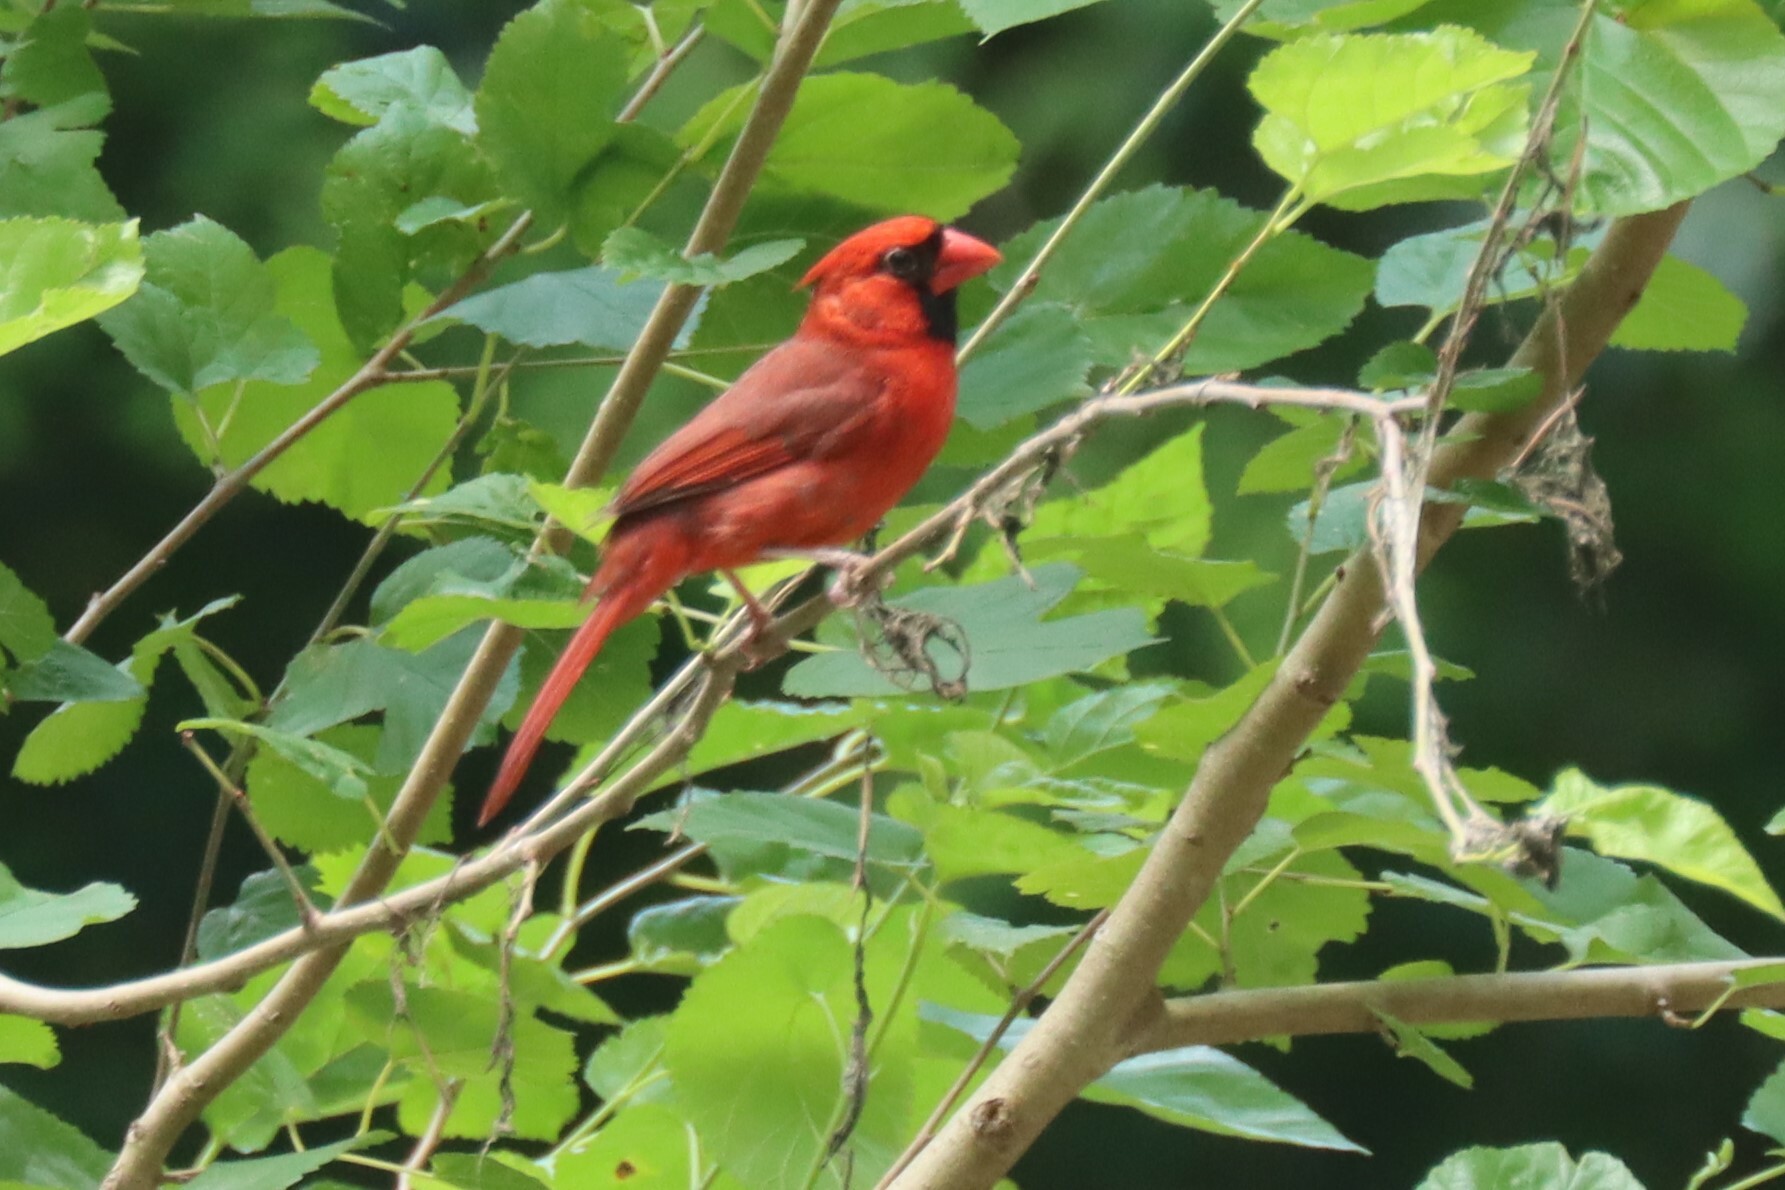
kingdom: Animalia
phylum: Chordata
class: Aves
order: Passeriformes
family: Cardinalidae
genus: Cardinalis
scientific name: Cardinalis cardinalis
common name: Northern cardinal
